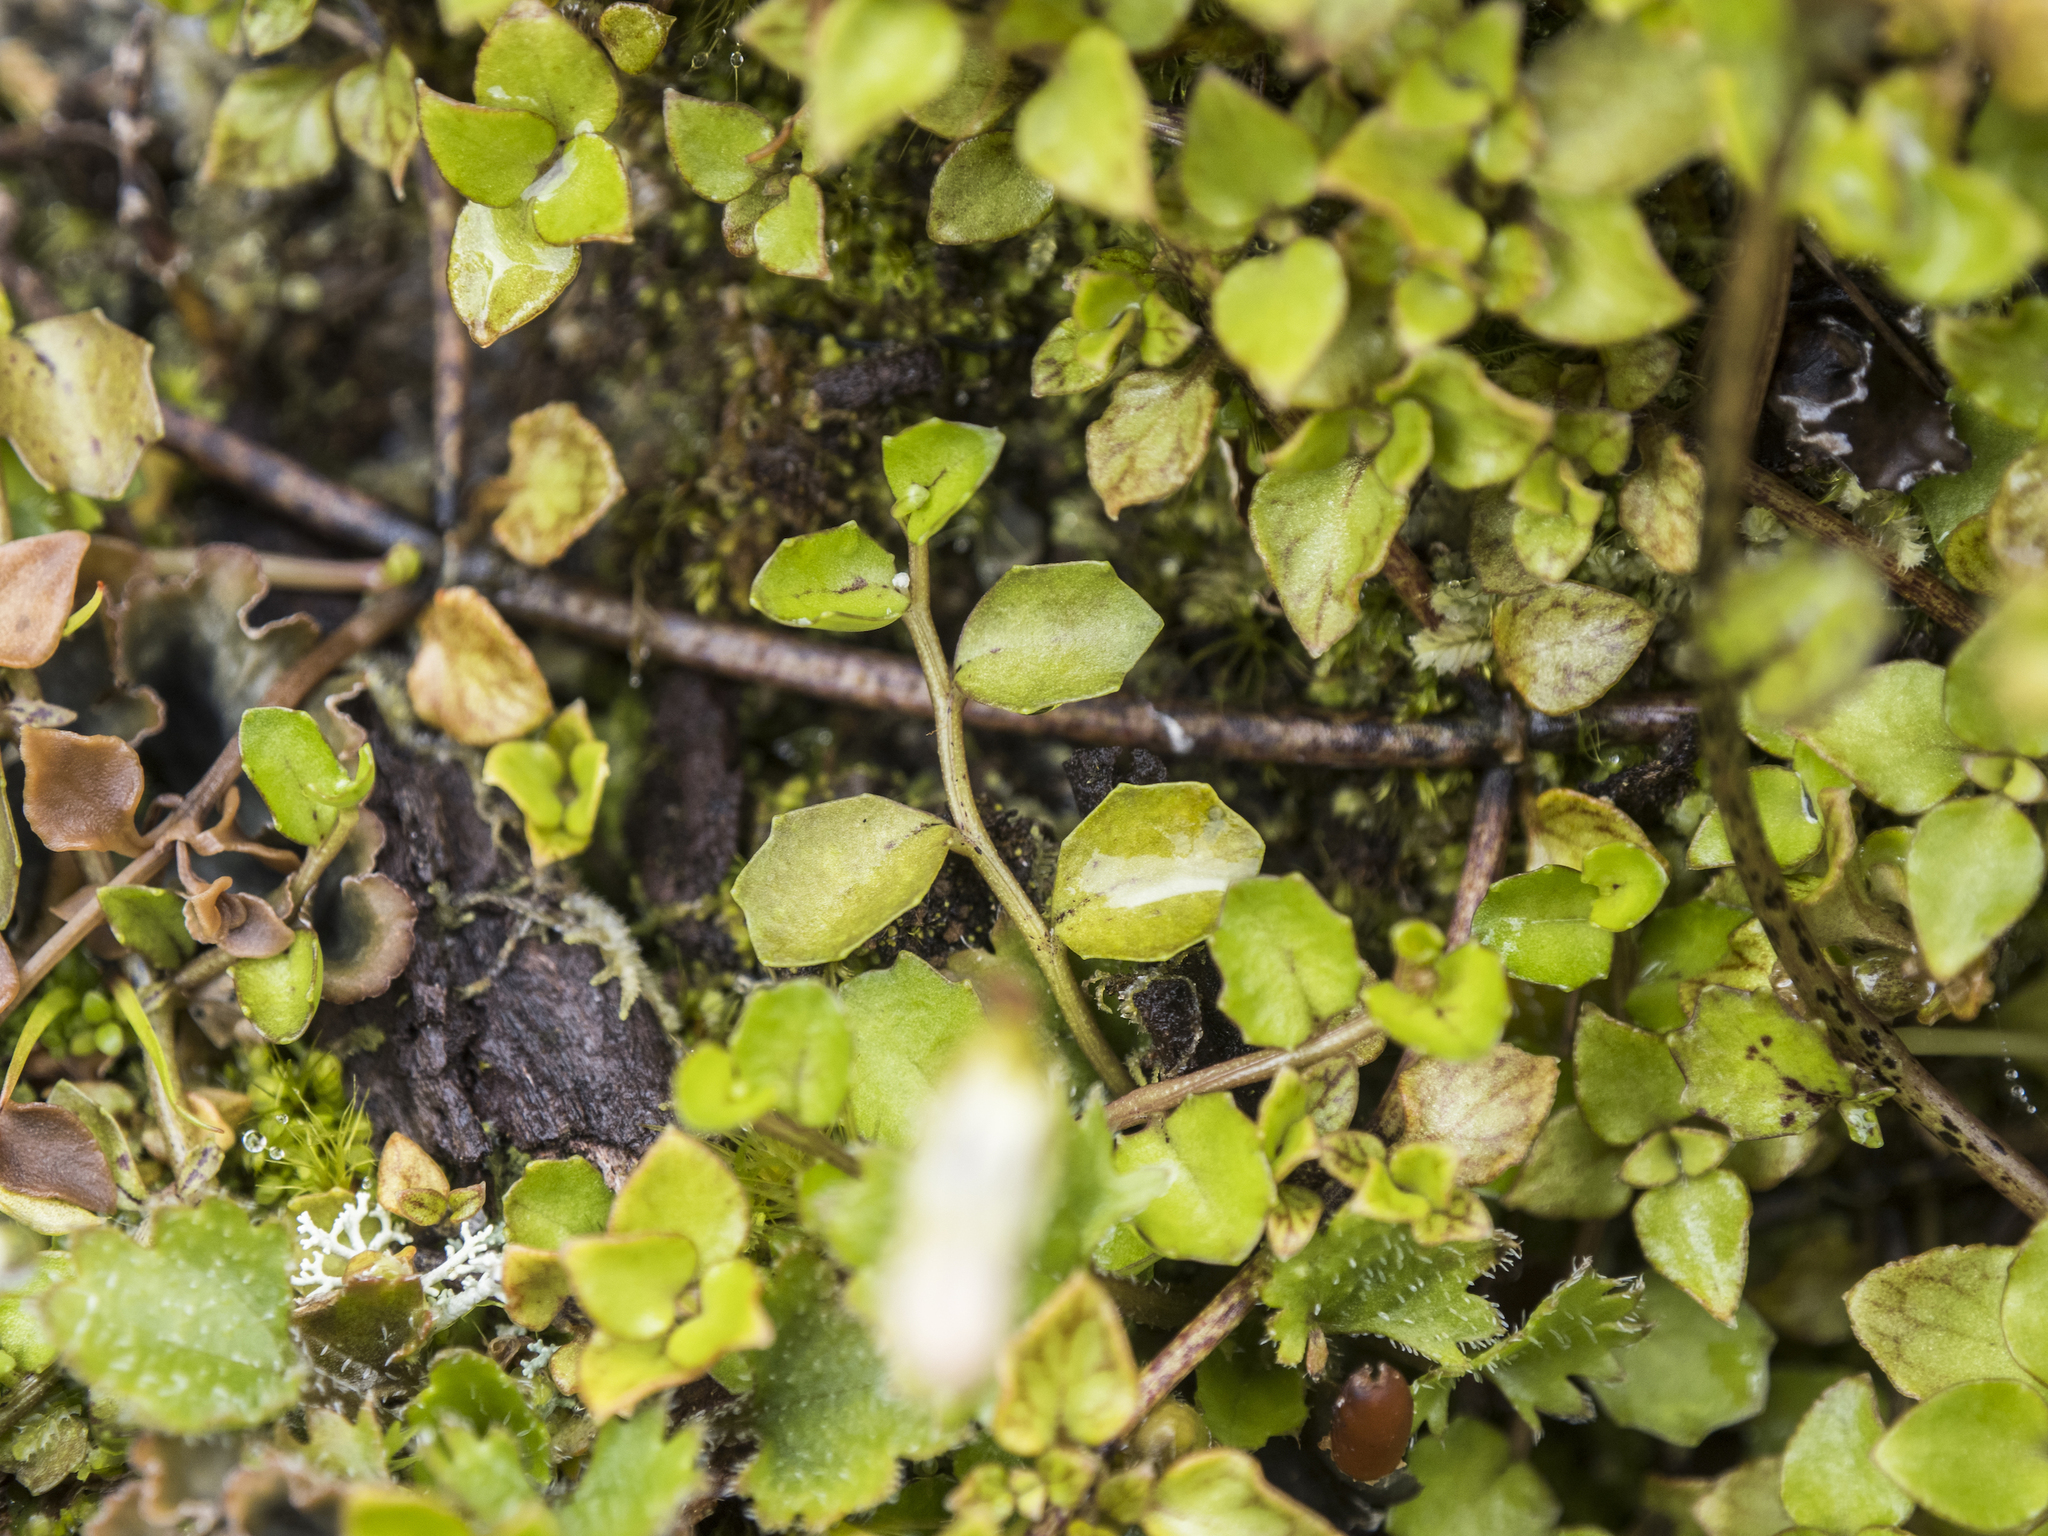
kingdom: Plantae
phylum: Tracheophyta
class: Magnoliopsida
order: Asterales
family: Campanulaceae
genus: Lobelia
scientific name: Lobelia angulata
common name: Lawn lobelia
